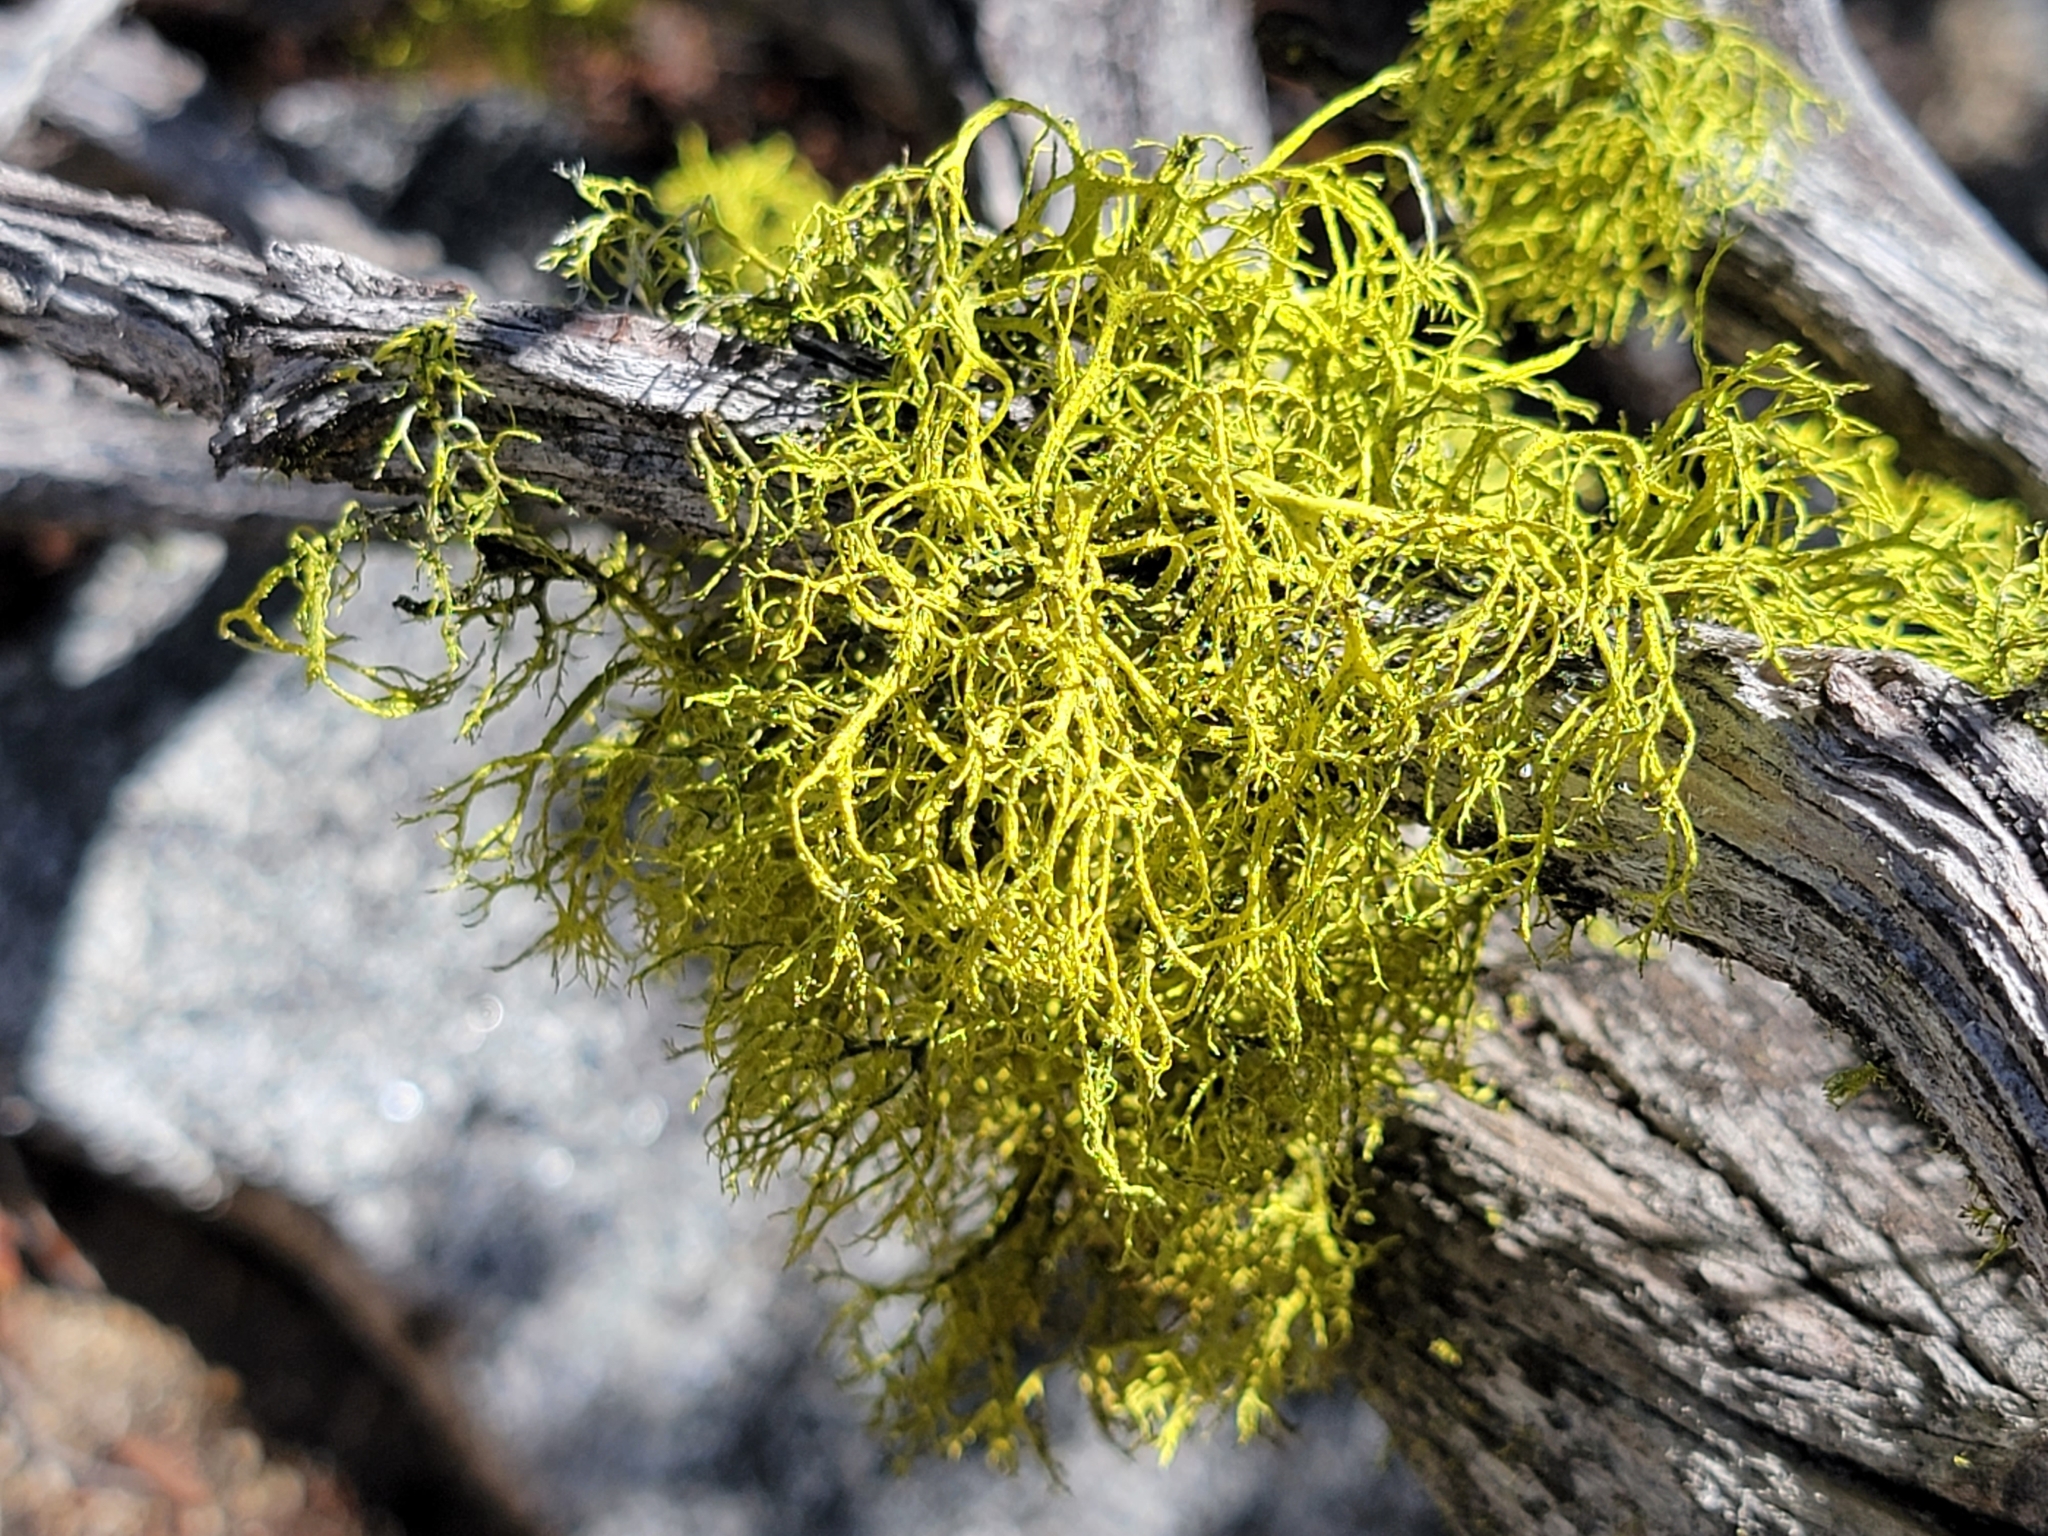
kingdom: Fungi
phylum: Ascomycota
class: Lecanoromycetes
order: Lecanorales
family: Parmeliaceae
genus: Letharia
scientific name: Letharia vulpina
